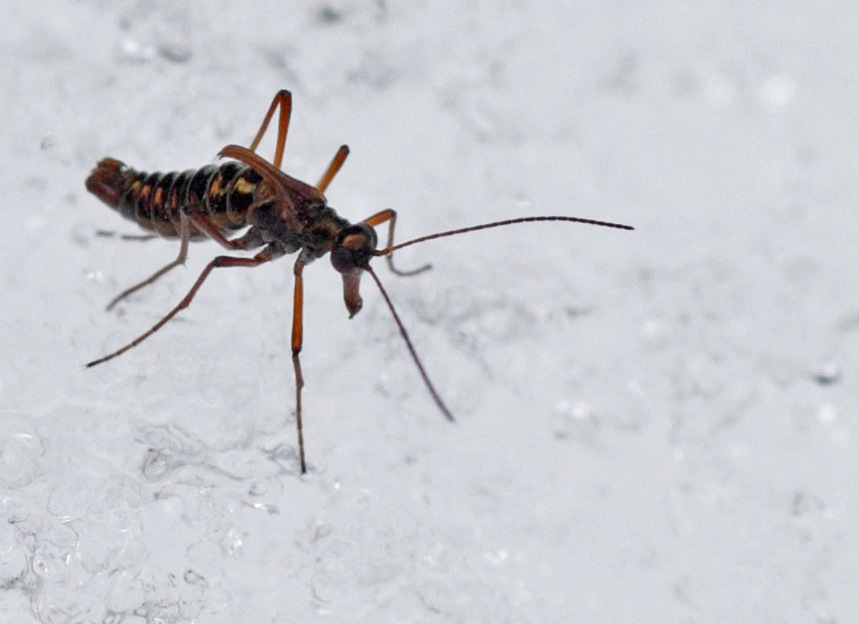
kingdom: Animalia
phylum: Arthropoda
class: Insecta
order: Mecoptera
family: Boreidae
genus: Boreus
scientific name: Boreus westwoodi
